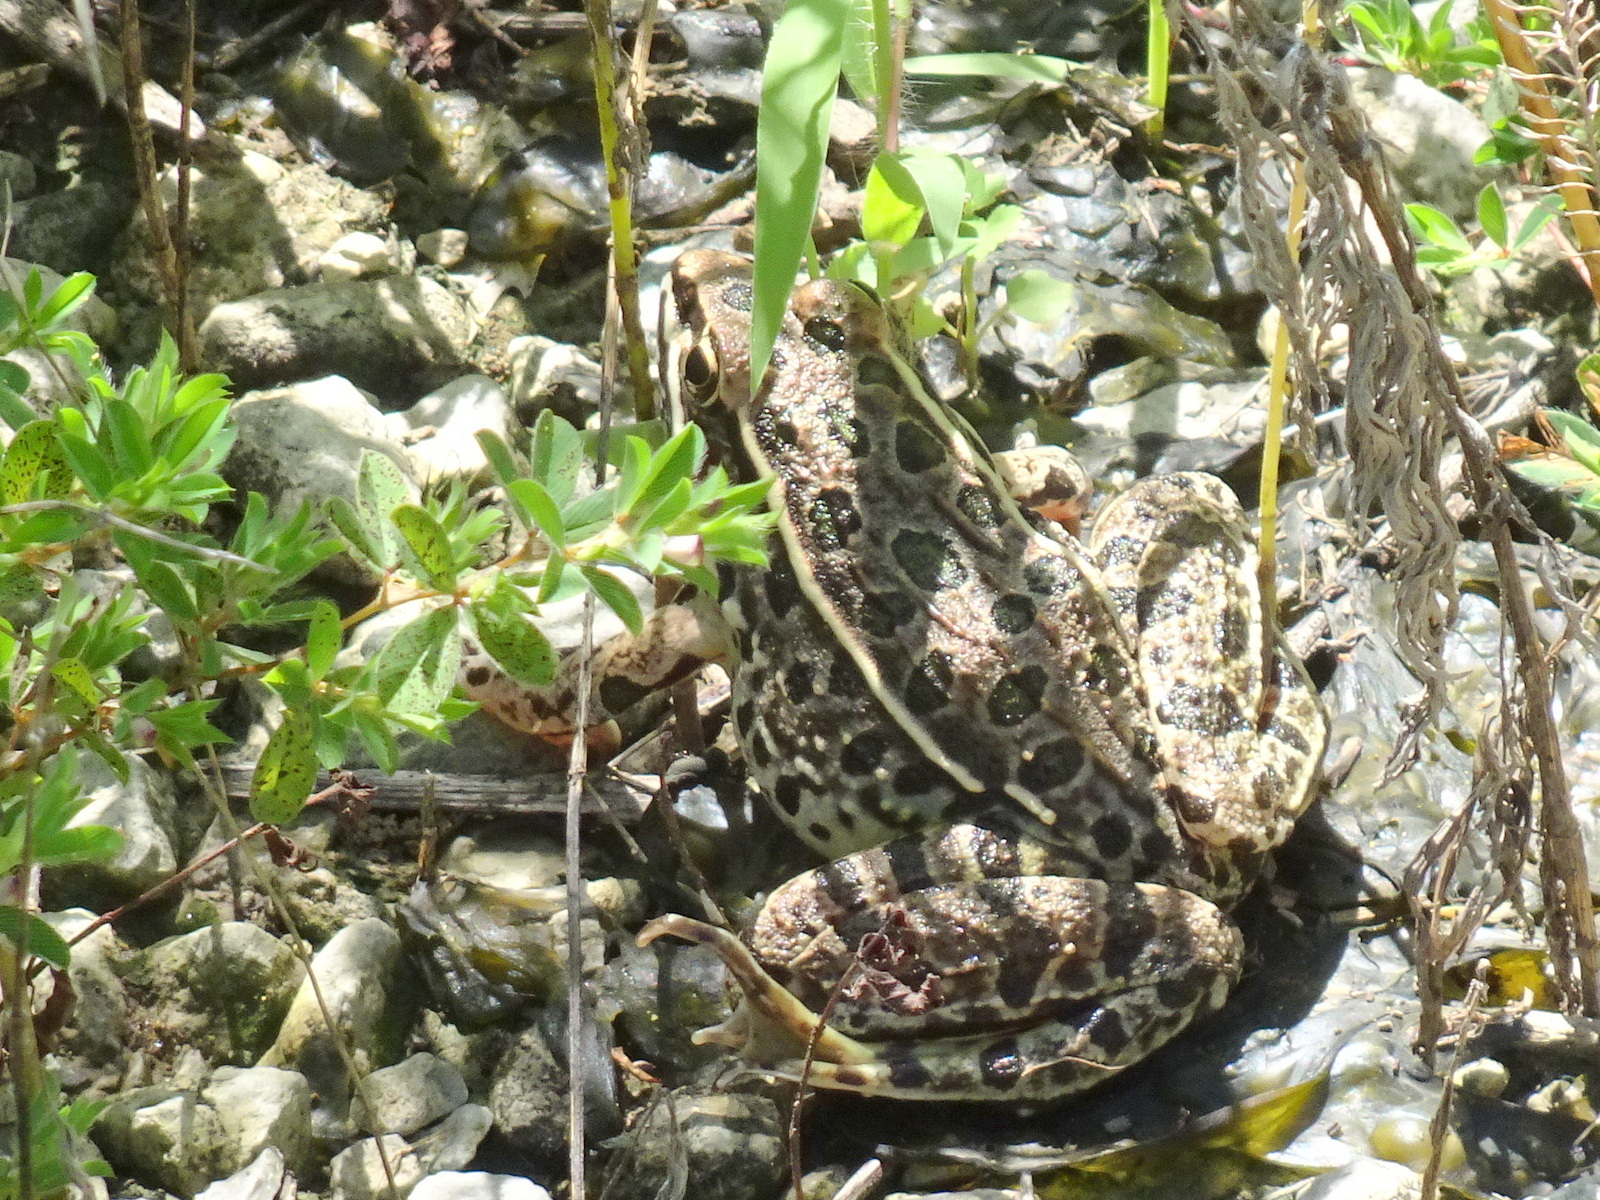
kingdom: Animalia
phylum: Chordata
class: Amphibia
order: Anura
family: Ranidae
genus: Lithobates
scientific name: Lithobates blairi
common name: Plains leopard frog
